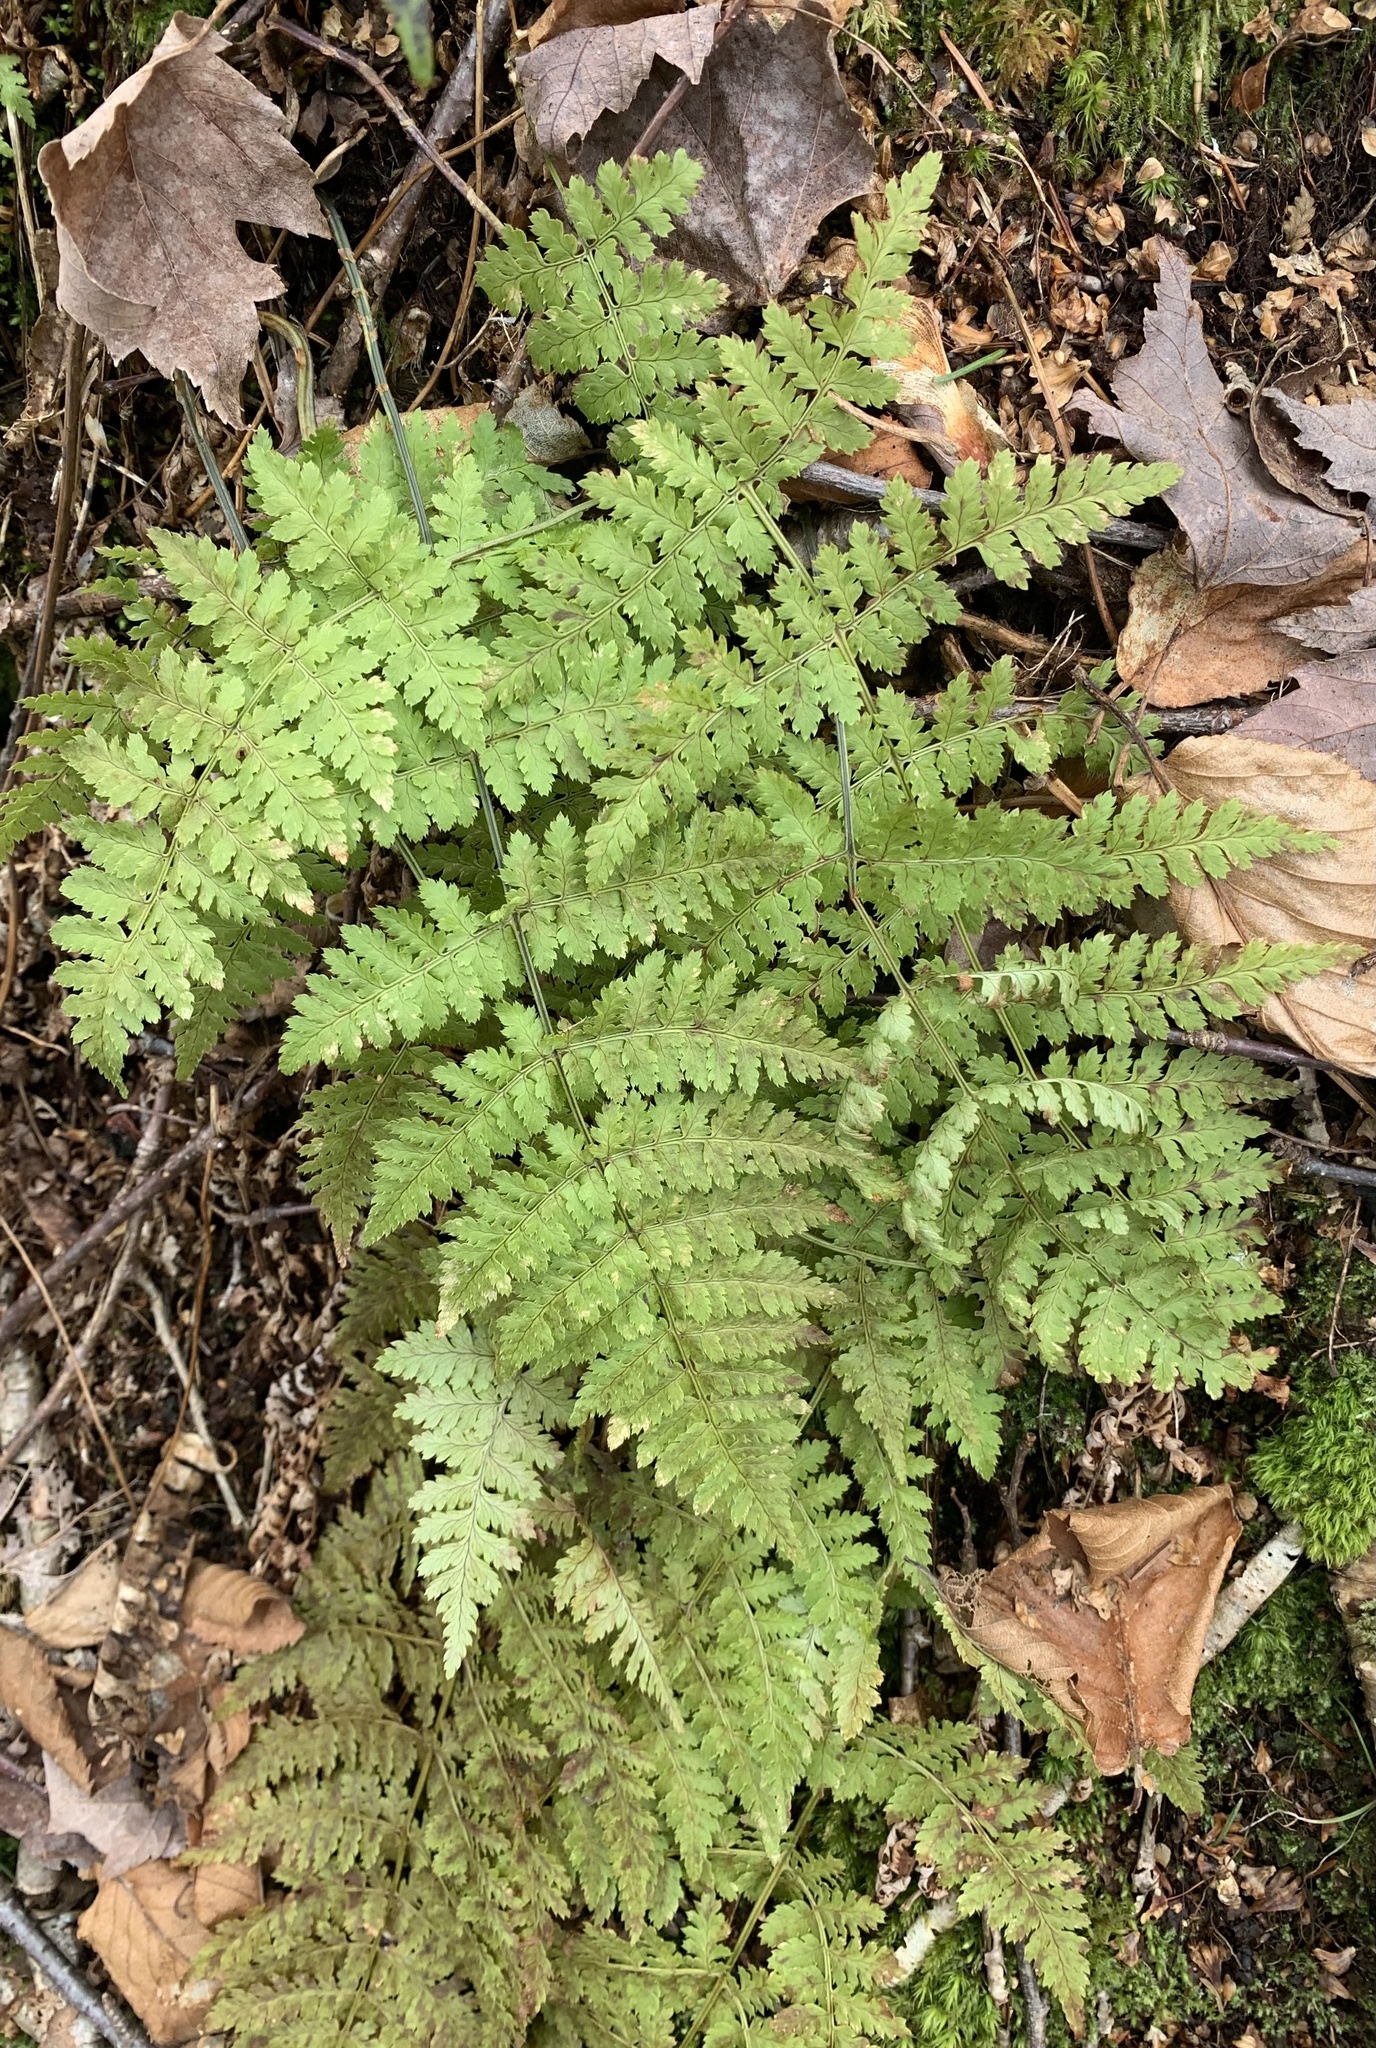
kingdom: Plantae
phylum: Tracheophyta
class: Polypodiopsida
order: Polypodiales
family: Dryopteridaceae
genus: Dryopteris
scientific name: Dryopteris intermedia
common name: Evergreen wood fern
